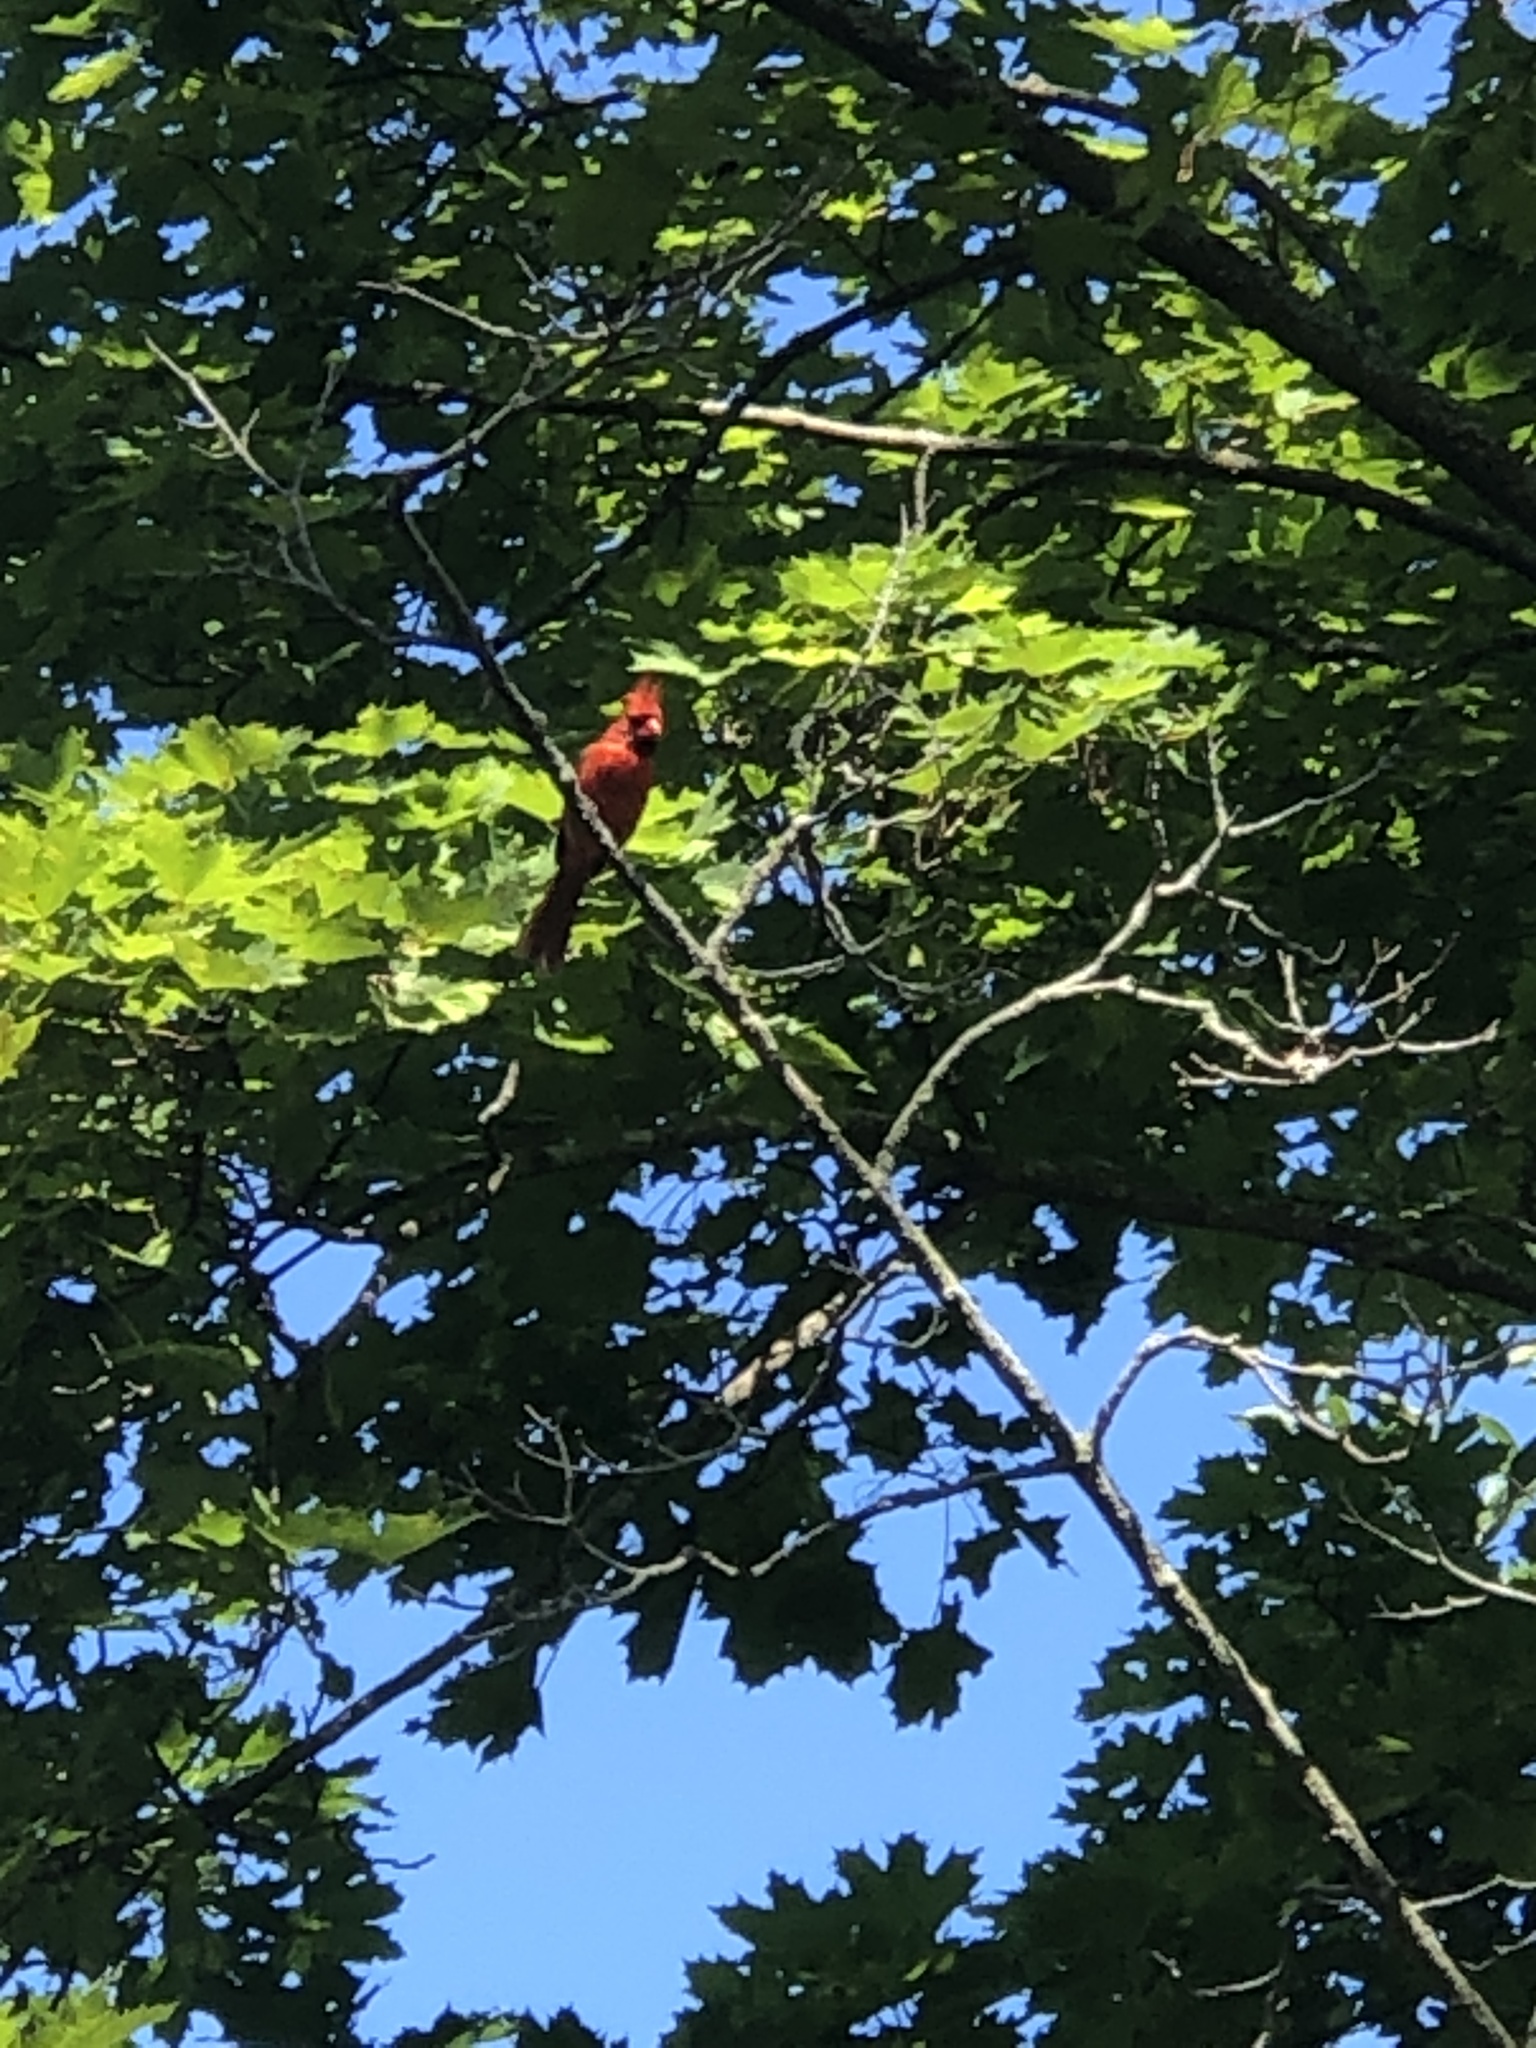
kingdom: Animalia
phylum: Chordata
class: Aves
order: Passeriformes
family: Cardinalidae
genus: Cardinalis
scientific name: Cardinalis cardinalis
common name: Northern cardinal
